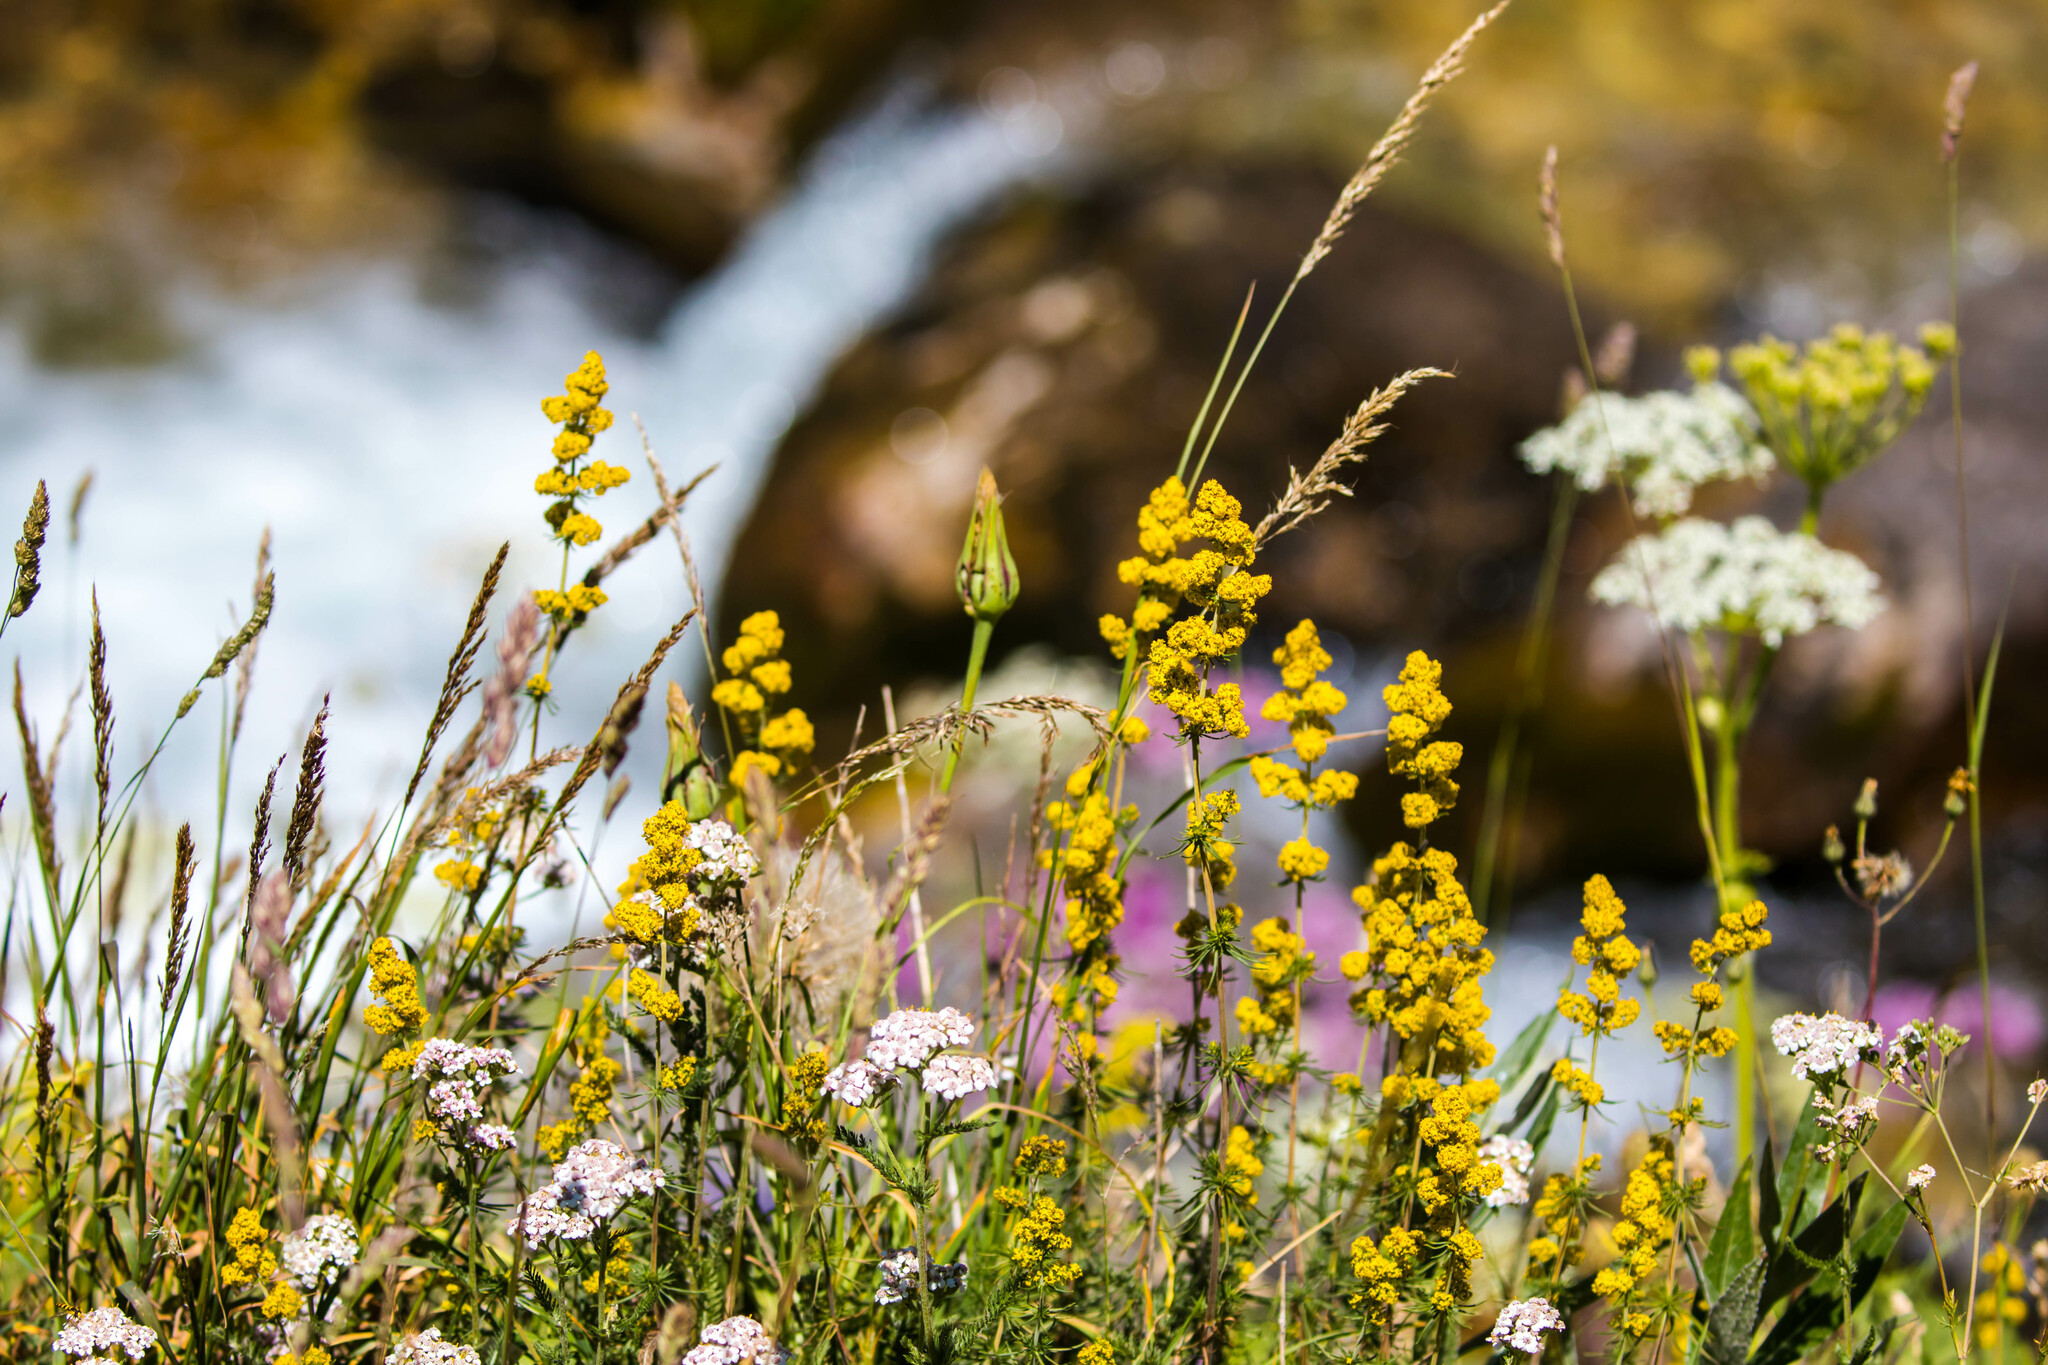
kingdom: Plantae
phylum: Tracheophyta
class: Magnoliopsida
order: Gentianales
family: Rubiaceae
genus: Galium
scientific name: Galium verum
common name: Lady's bedstraw
